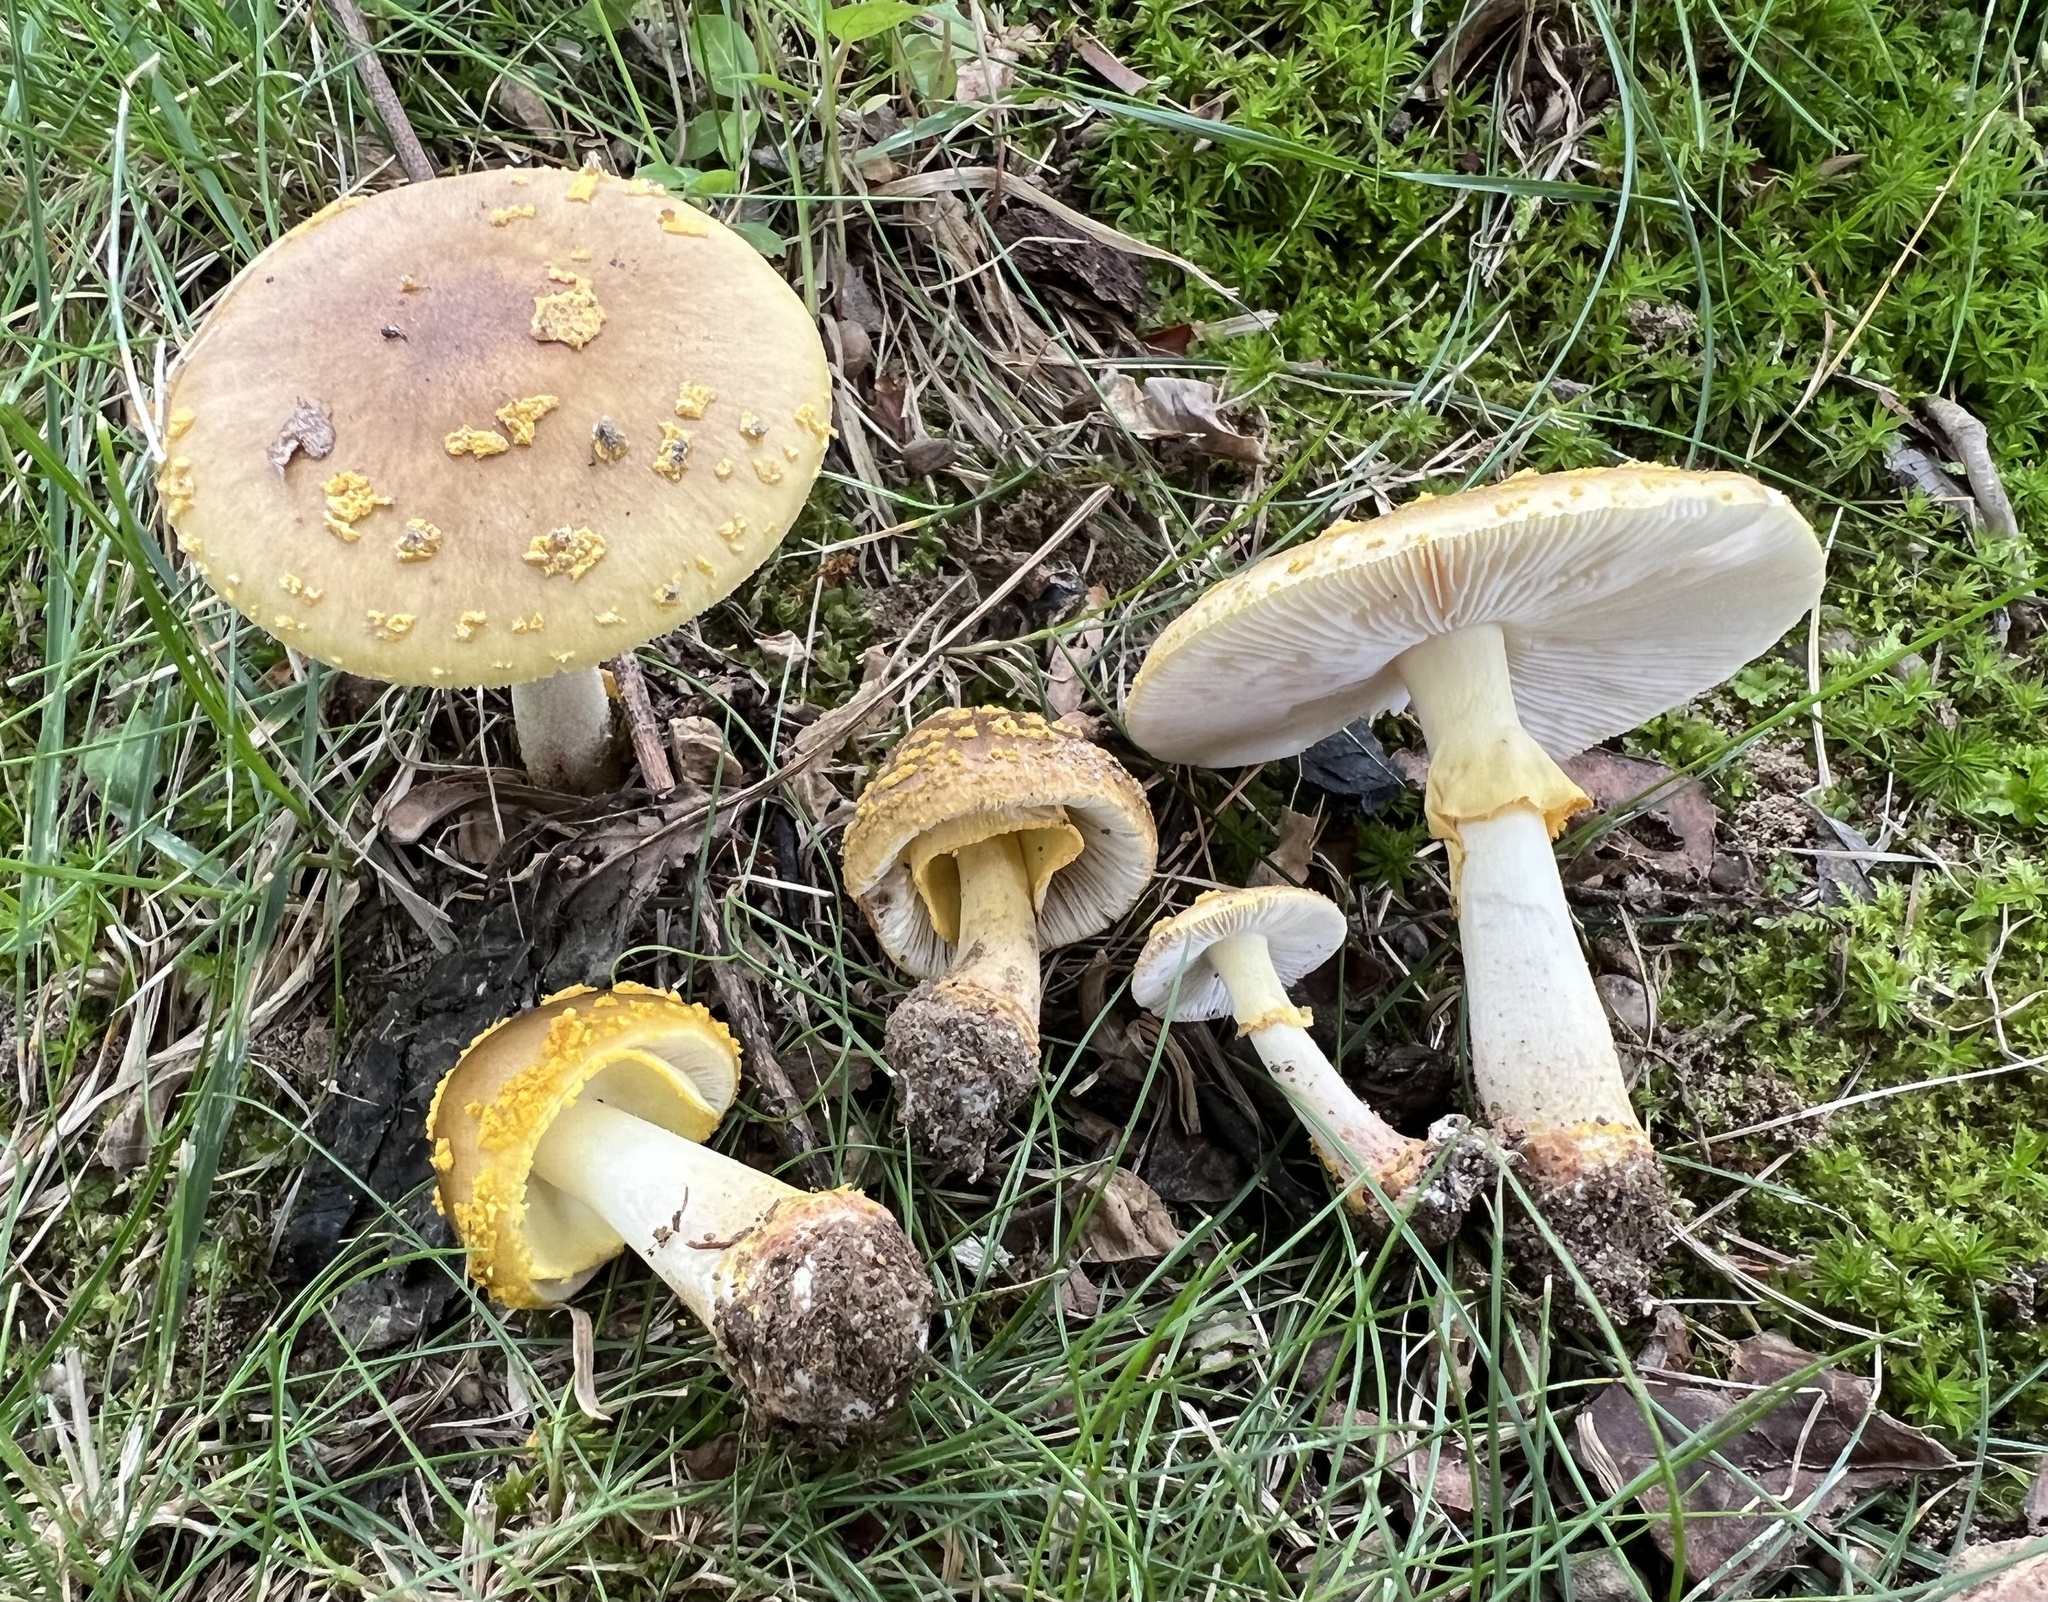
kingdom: Fungi
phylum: Basidiomycota
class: Agaricomycetes
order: Agaricales
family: Amanitaceae
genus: Amanita
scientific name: Amanita flavorubens
